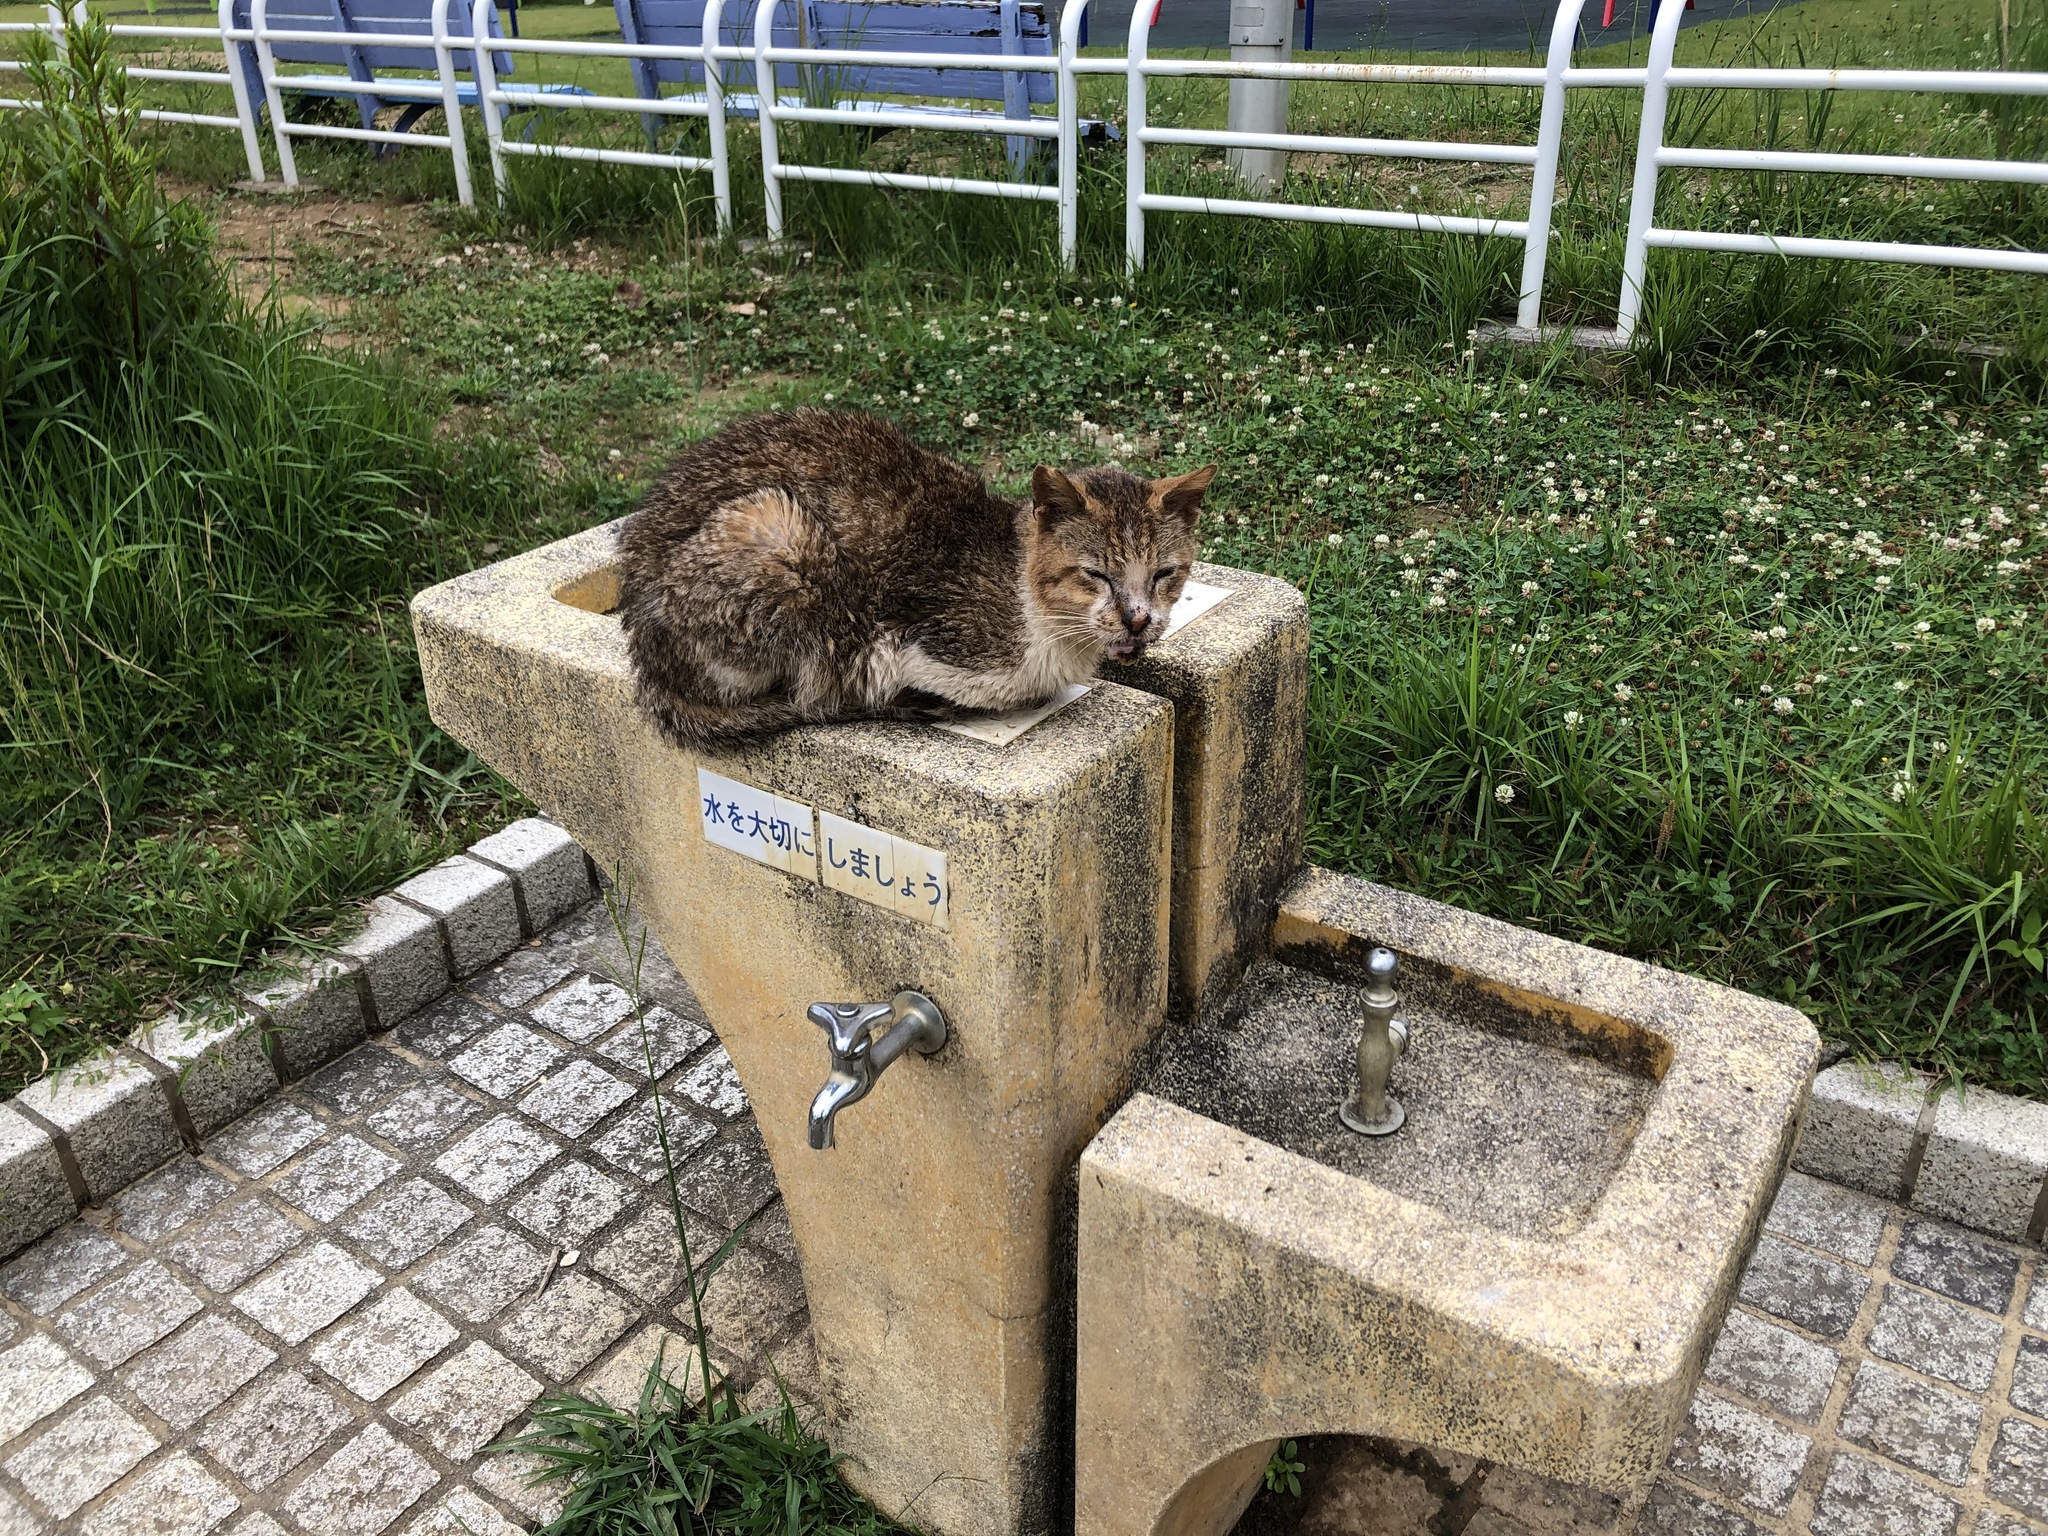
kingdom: Animalia
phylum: Chordata
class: Mammalia
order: Carnivora
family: Felidae
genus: Felis
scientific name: Felis catus
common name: Domestic cat
